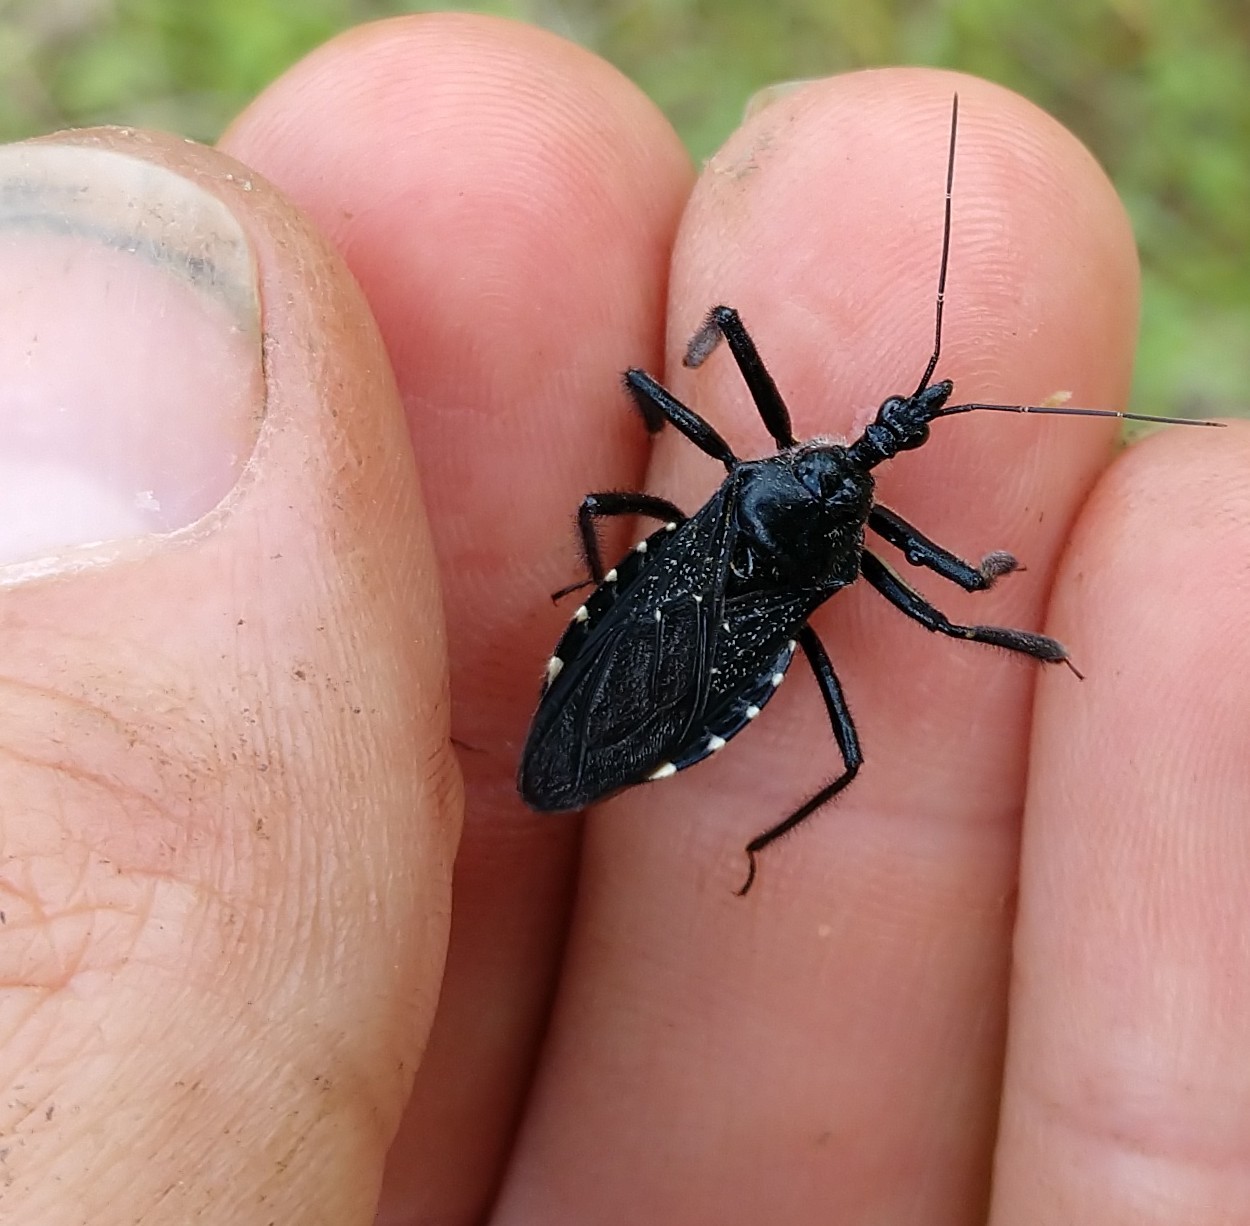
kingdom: Animalia
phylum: Arthropoda
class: Insecta
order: Hemiptera
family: Reduviidae
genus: Apiomerus
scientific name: Apiomerus longispinis
